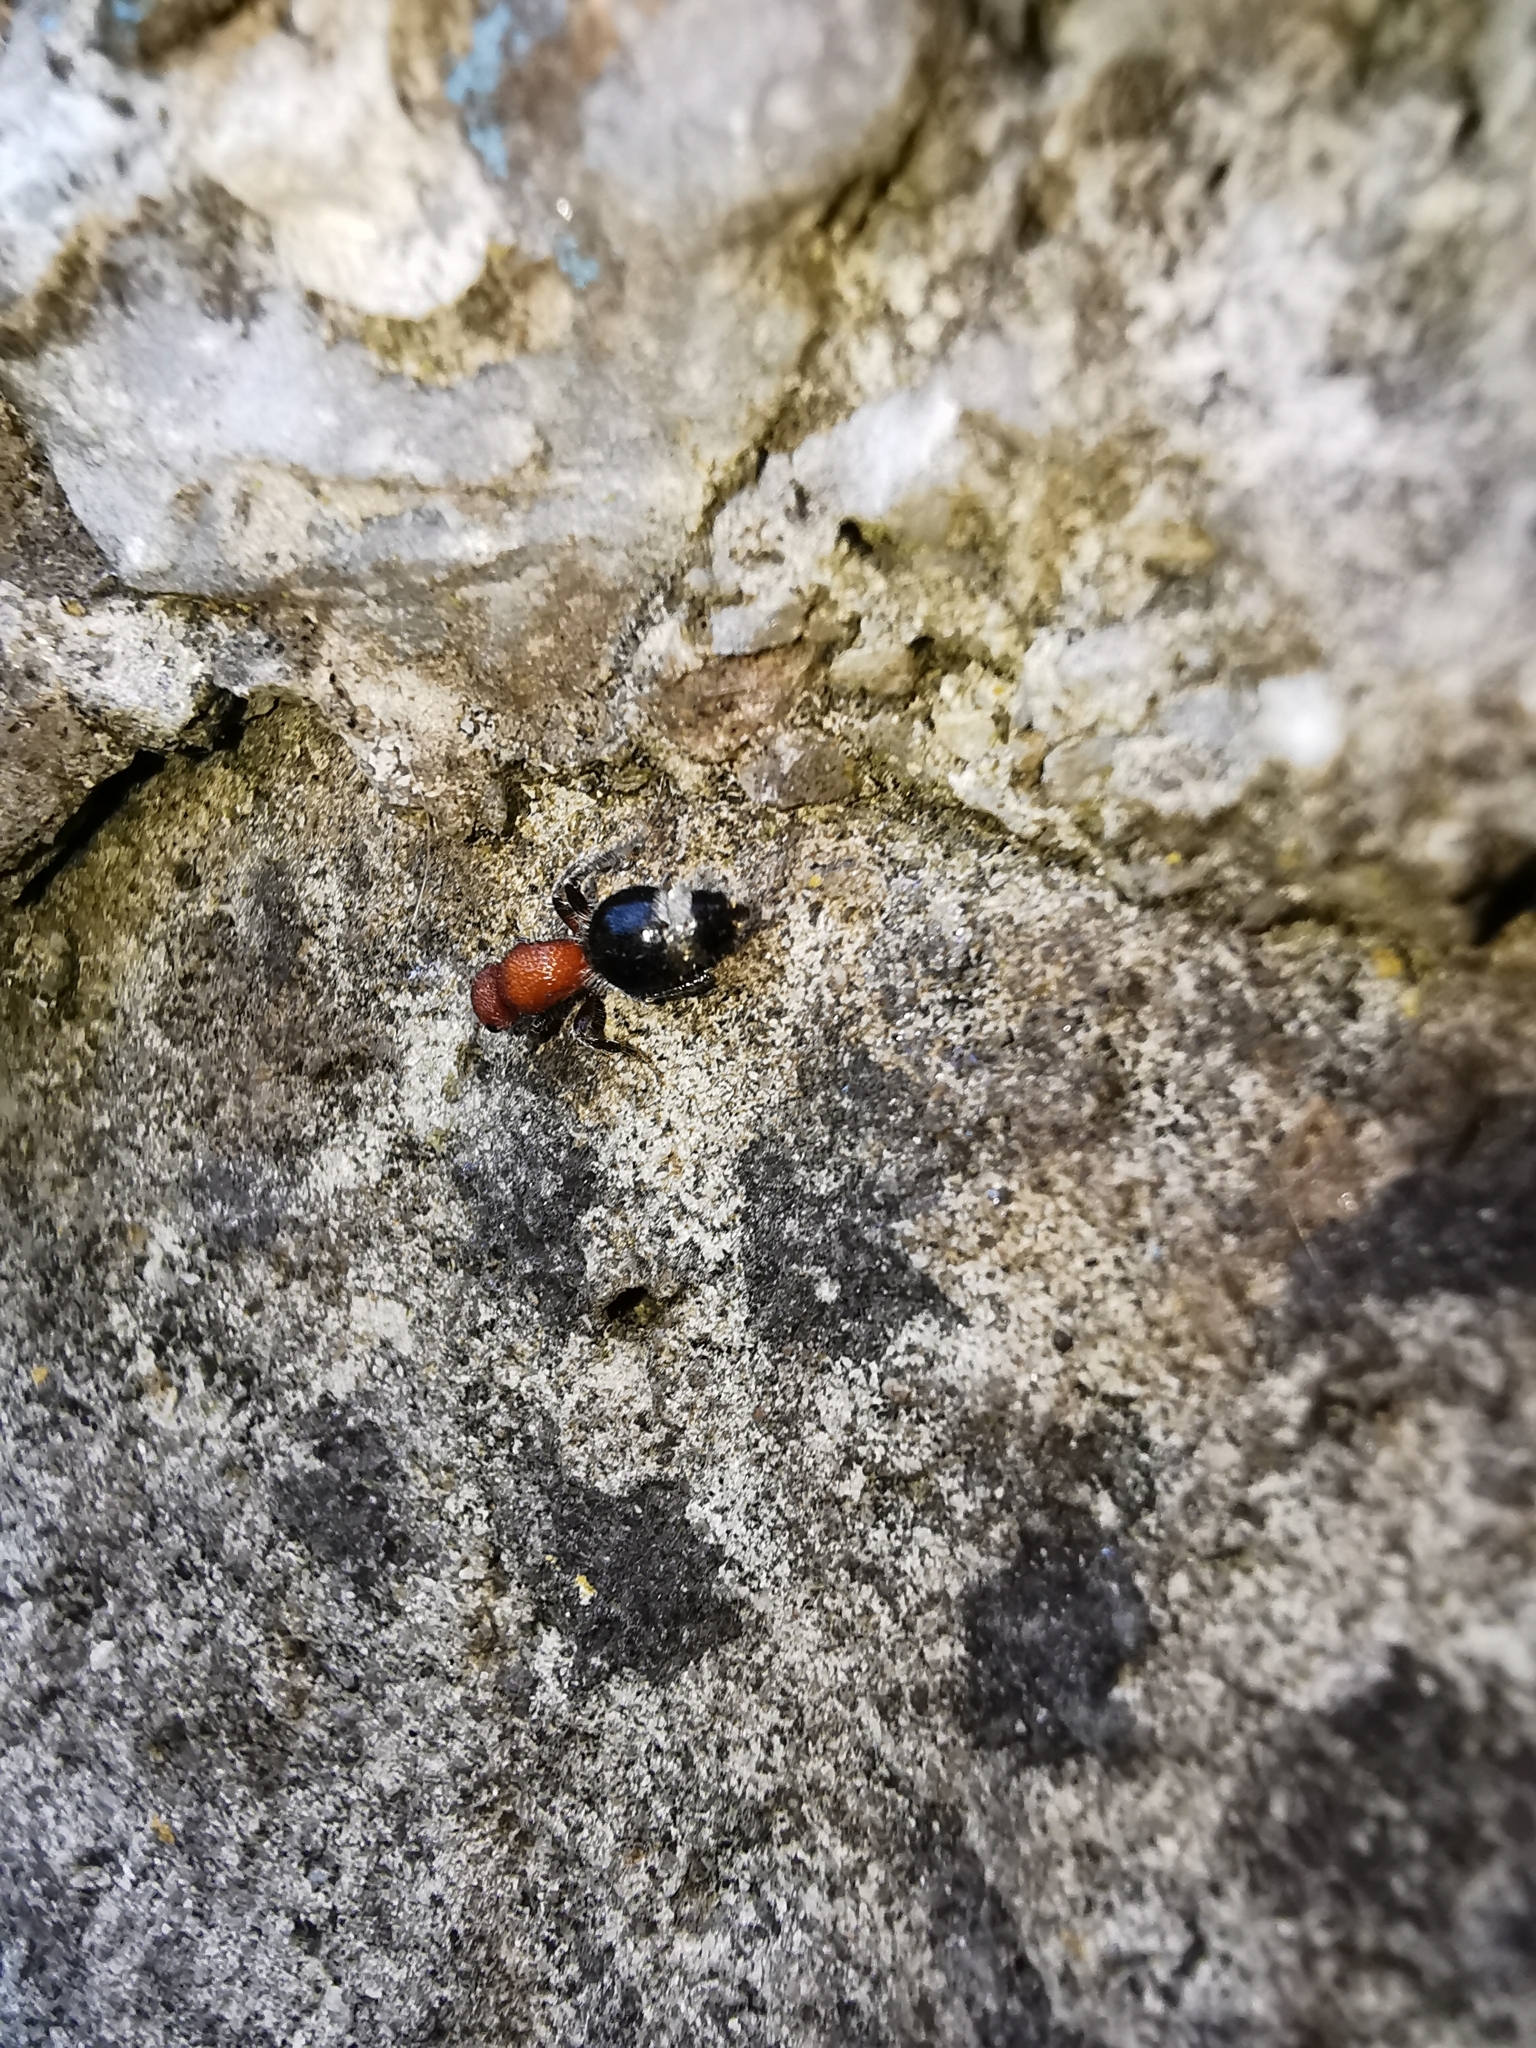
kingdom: Animalia
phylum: Arthropoda
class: Insecta
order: Hymenoptera
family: Mutillidae
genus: Cystomutilla
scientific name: Cystomutilla ruficeps
